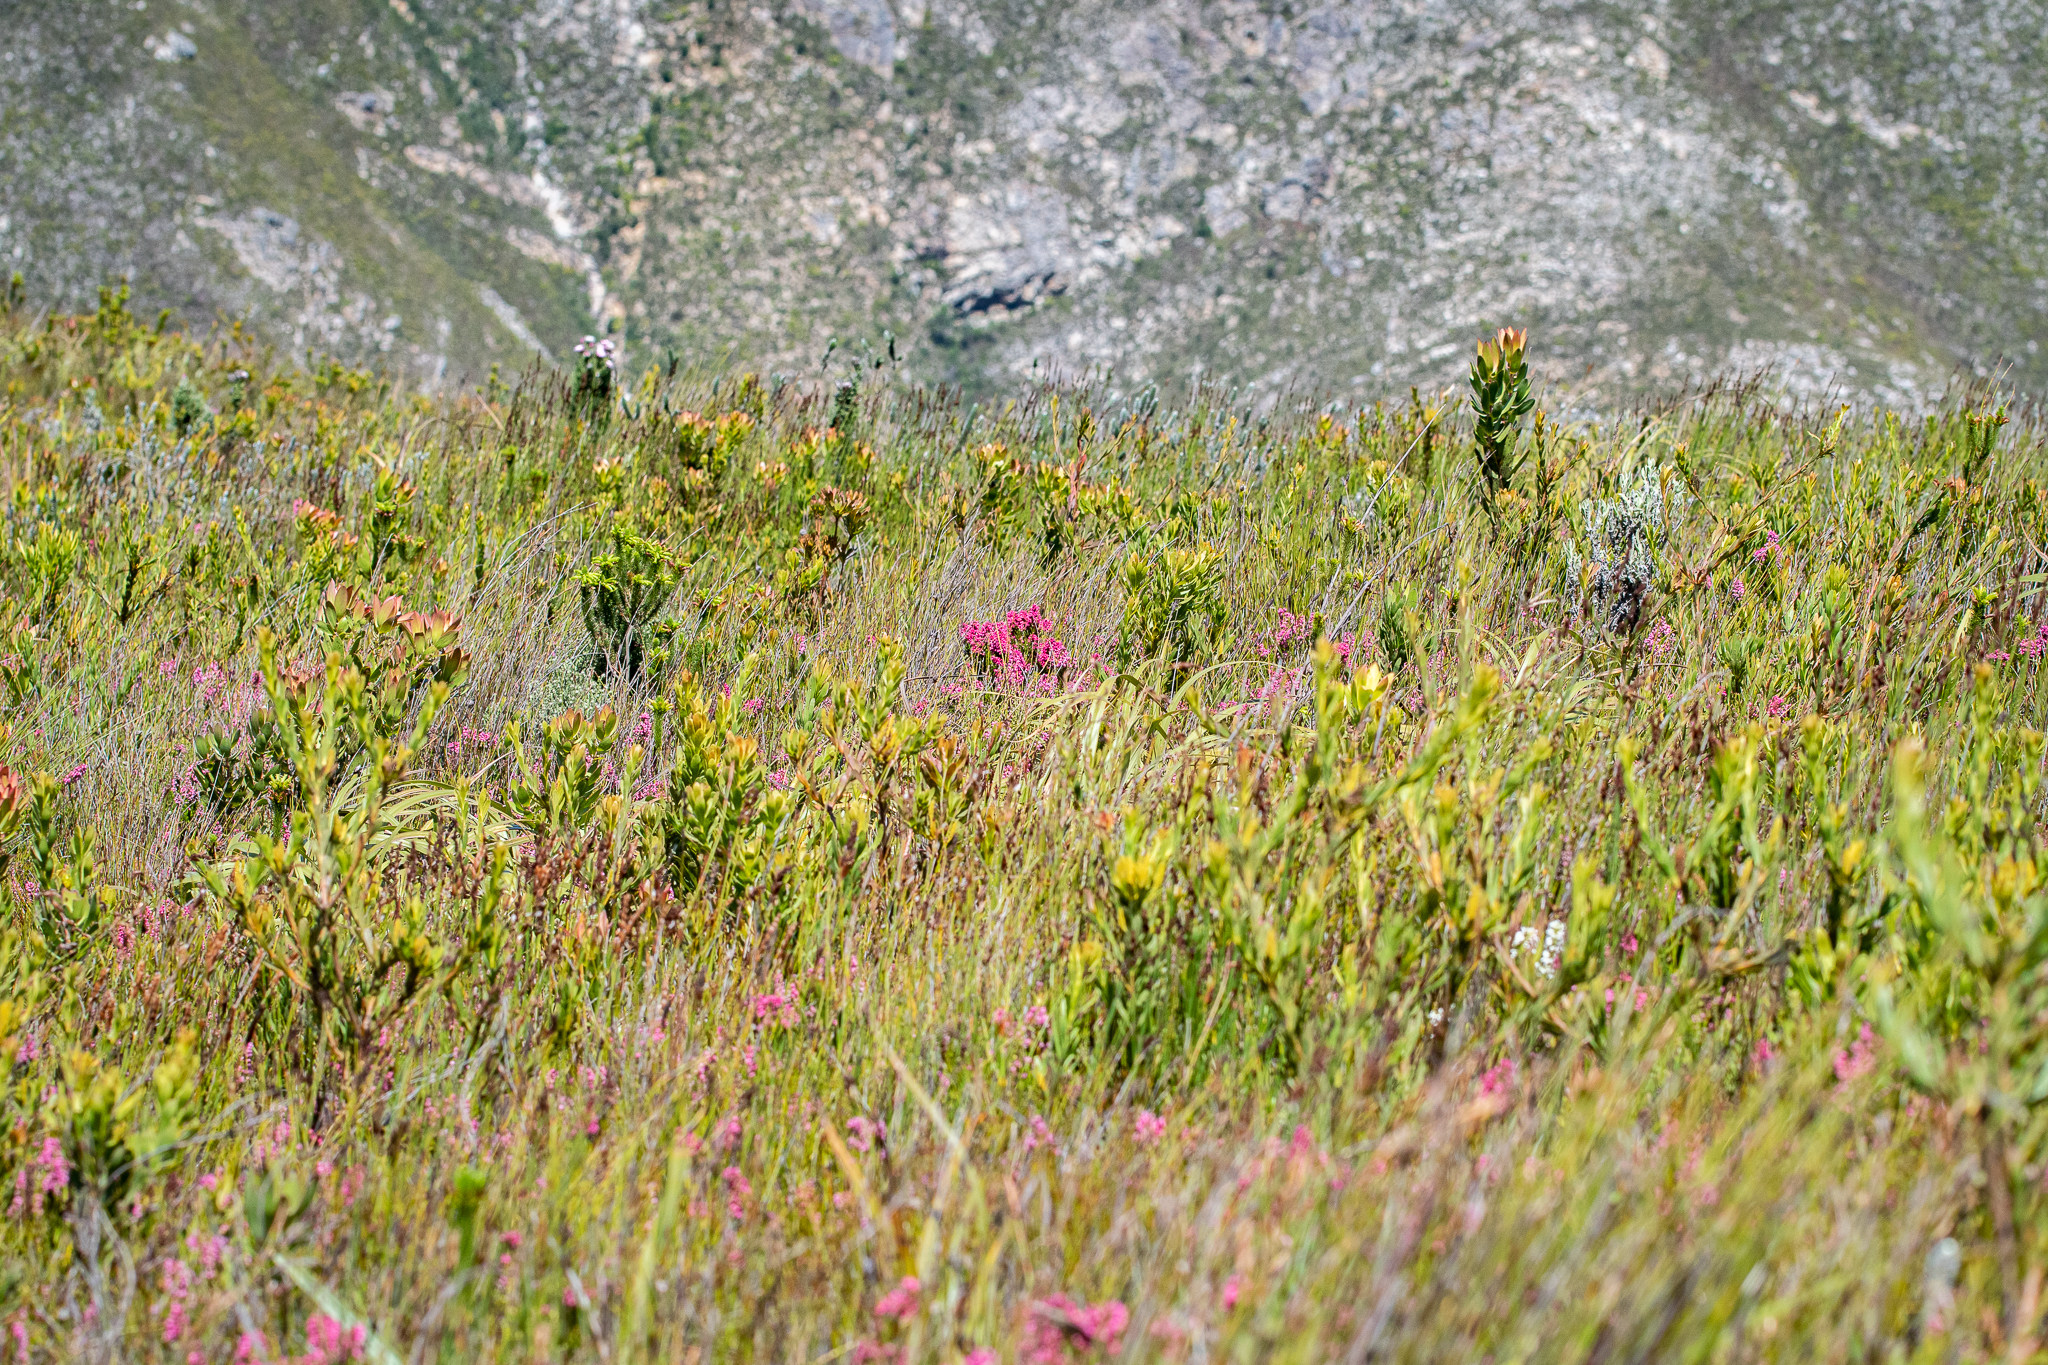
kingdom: Plantae
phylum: Tracheophyta
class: Magnoliopsida
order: Ericales
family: Ericaceae
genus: Erica
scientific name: Erica tenella
